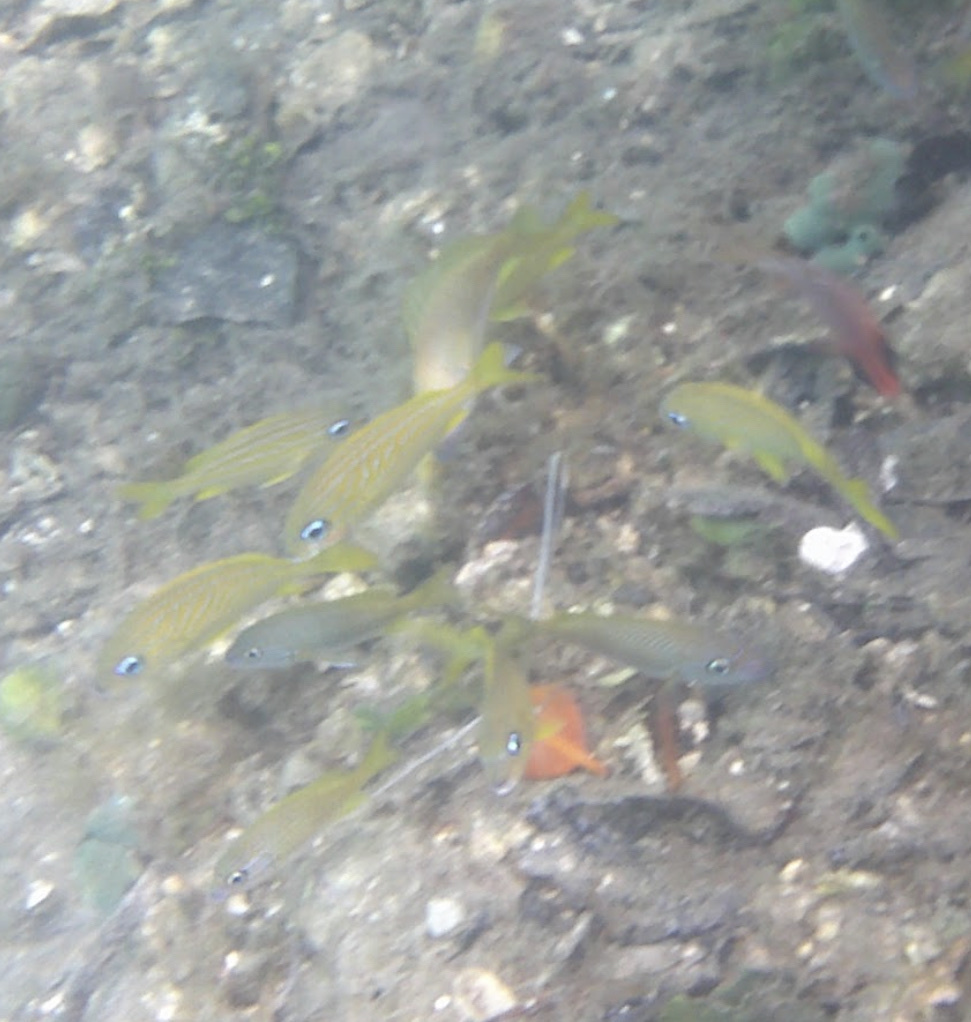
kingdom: Animalia
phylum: Chordata
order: Perciformes
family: Haemulidae
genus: Haemulon
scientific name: Haemulon flavolineatum
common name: French grunt
